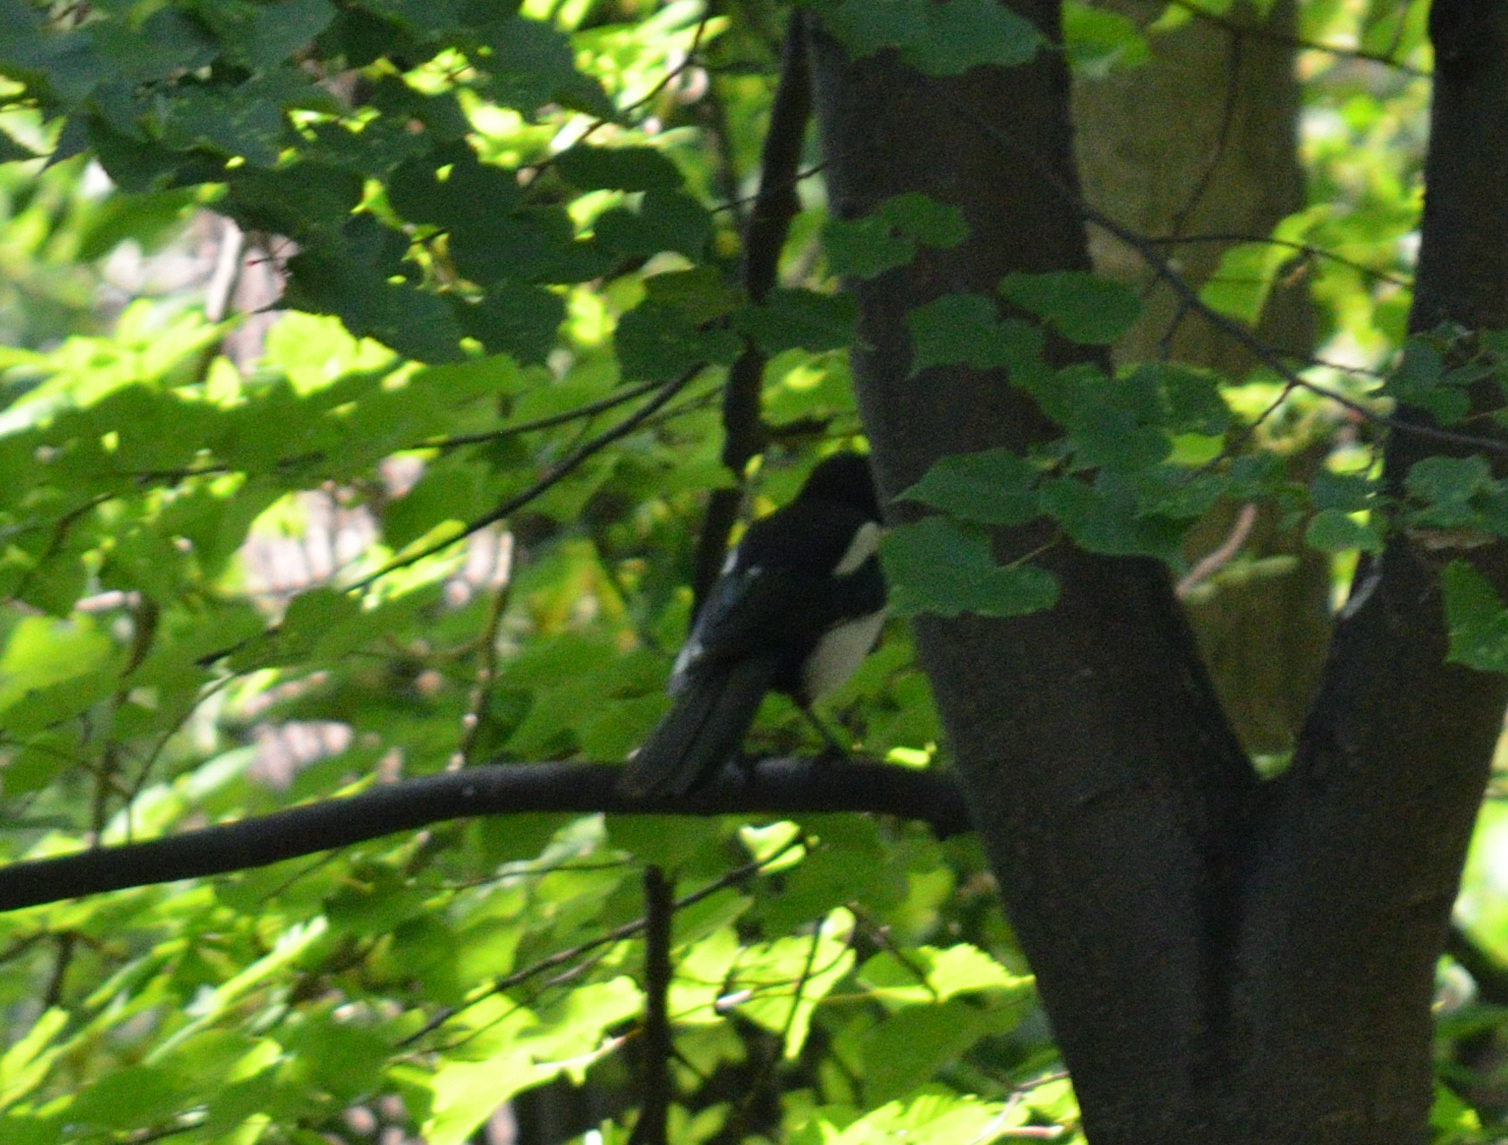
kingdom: Animalia
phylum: Chordata
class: Aves
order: Passeriformes
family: Corvidae
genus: Pica
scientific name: Pica pica
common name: Eurasian magpie
